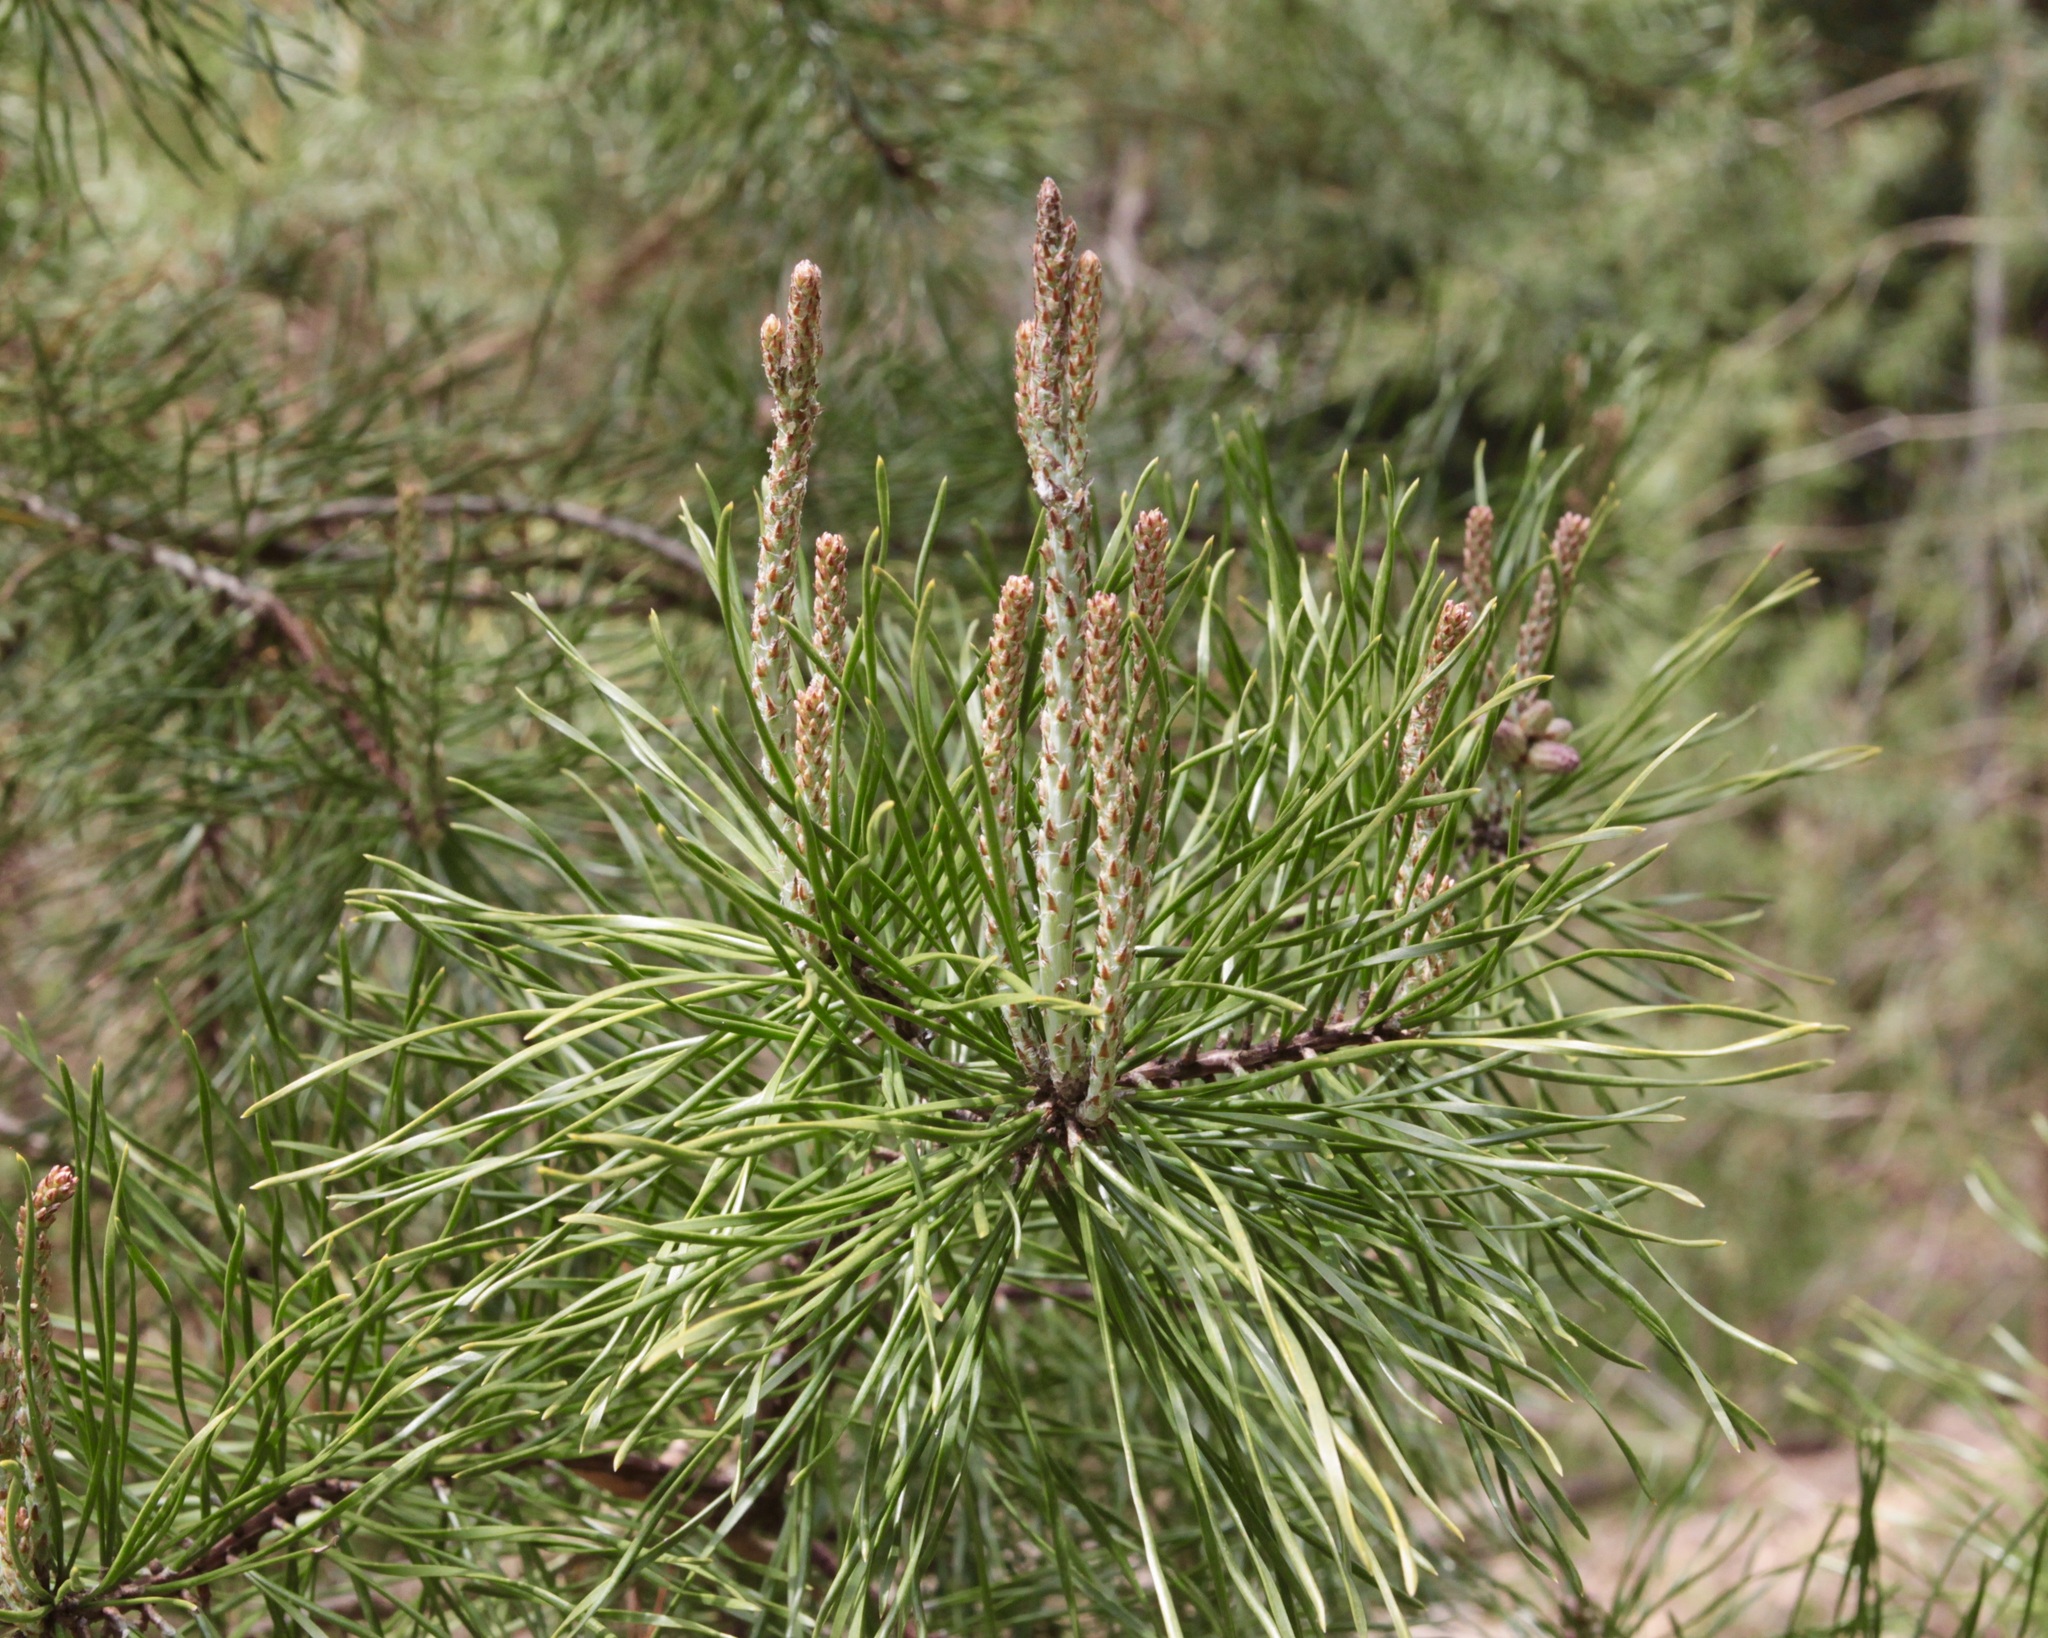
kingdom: Plantae
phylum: Tracheophyta
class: Pinopsida
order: Pinales
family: Pinaceae
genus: Pinus
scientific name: Pinus virginiana
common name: Scrub pine
